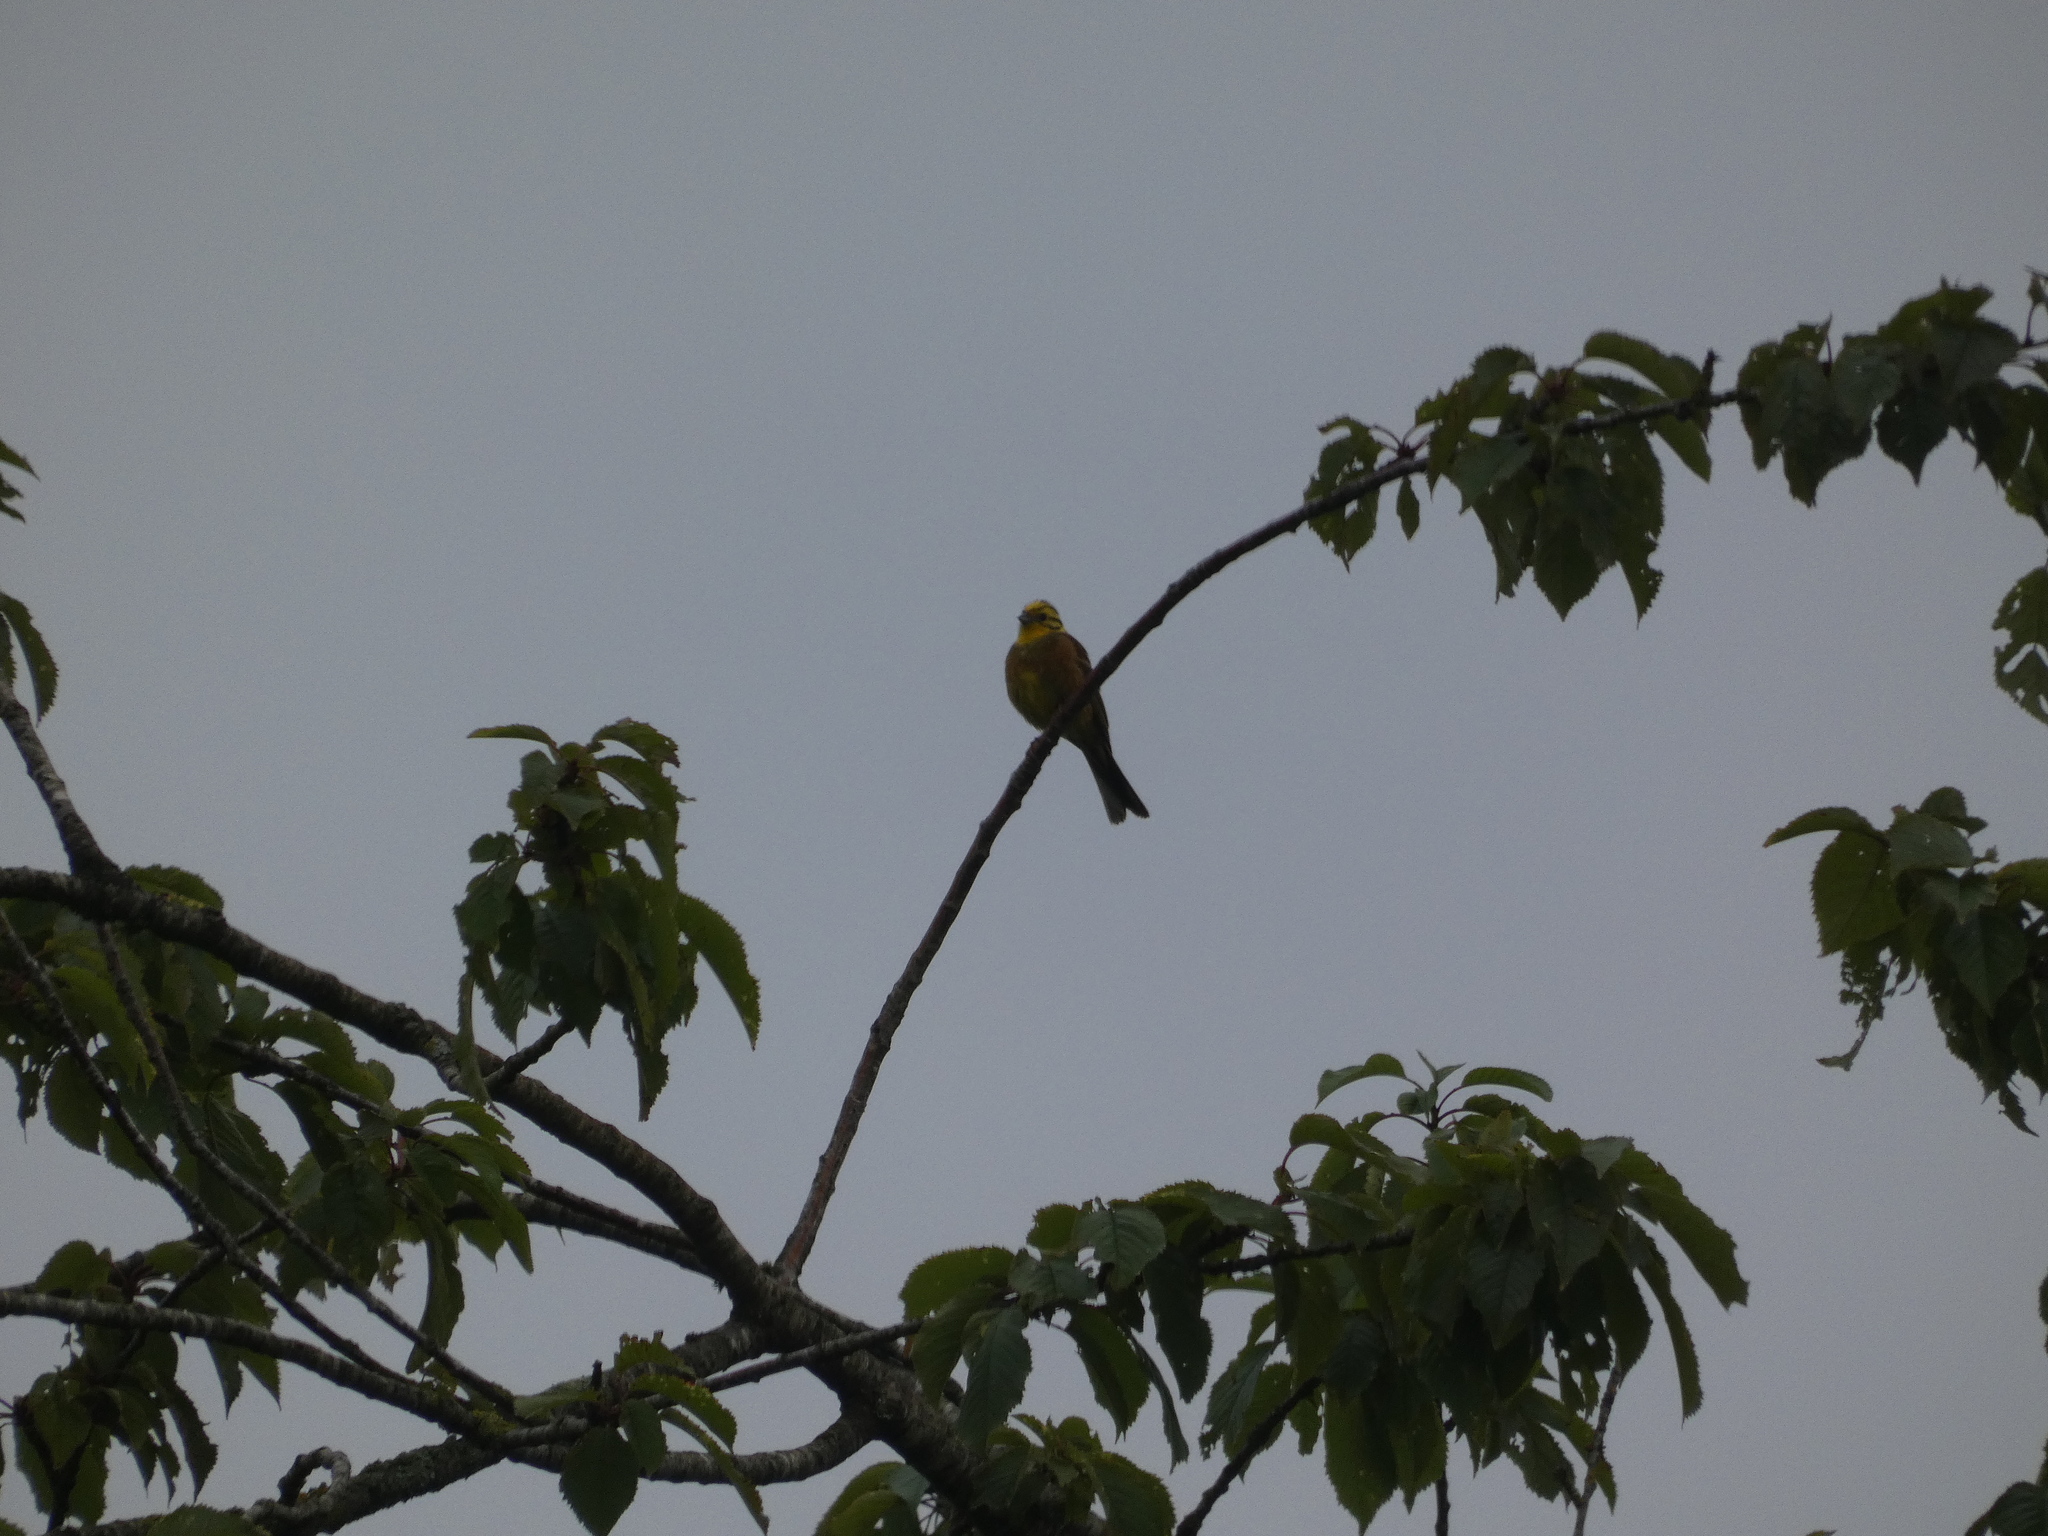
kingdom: Animalia
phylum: Chordata
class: Aves
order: Passeriformes
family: Emberizidae
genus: Emberiza
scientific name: Emberiza citrinella
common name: Yellowhammer
